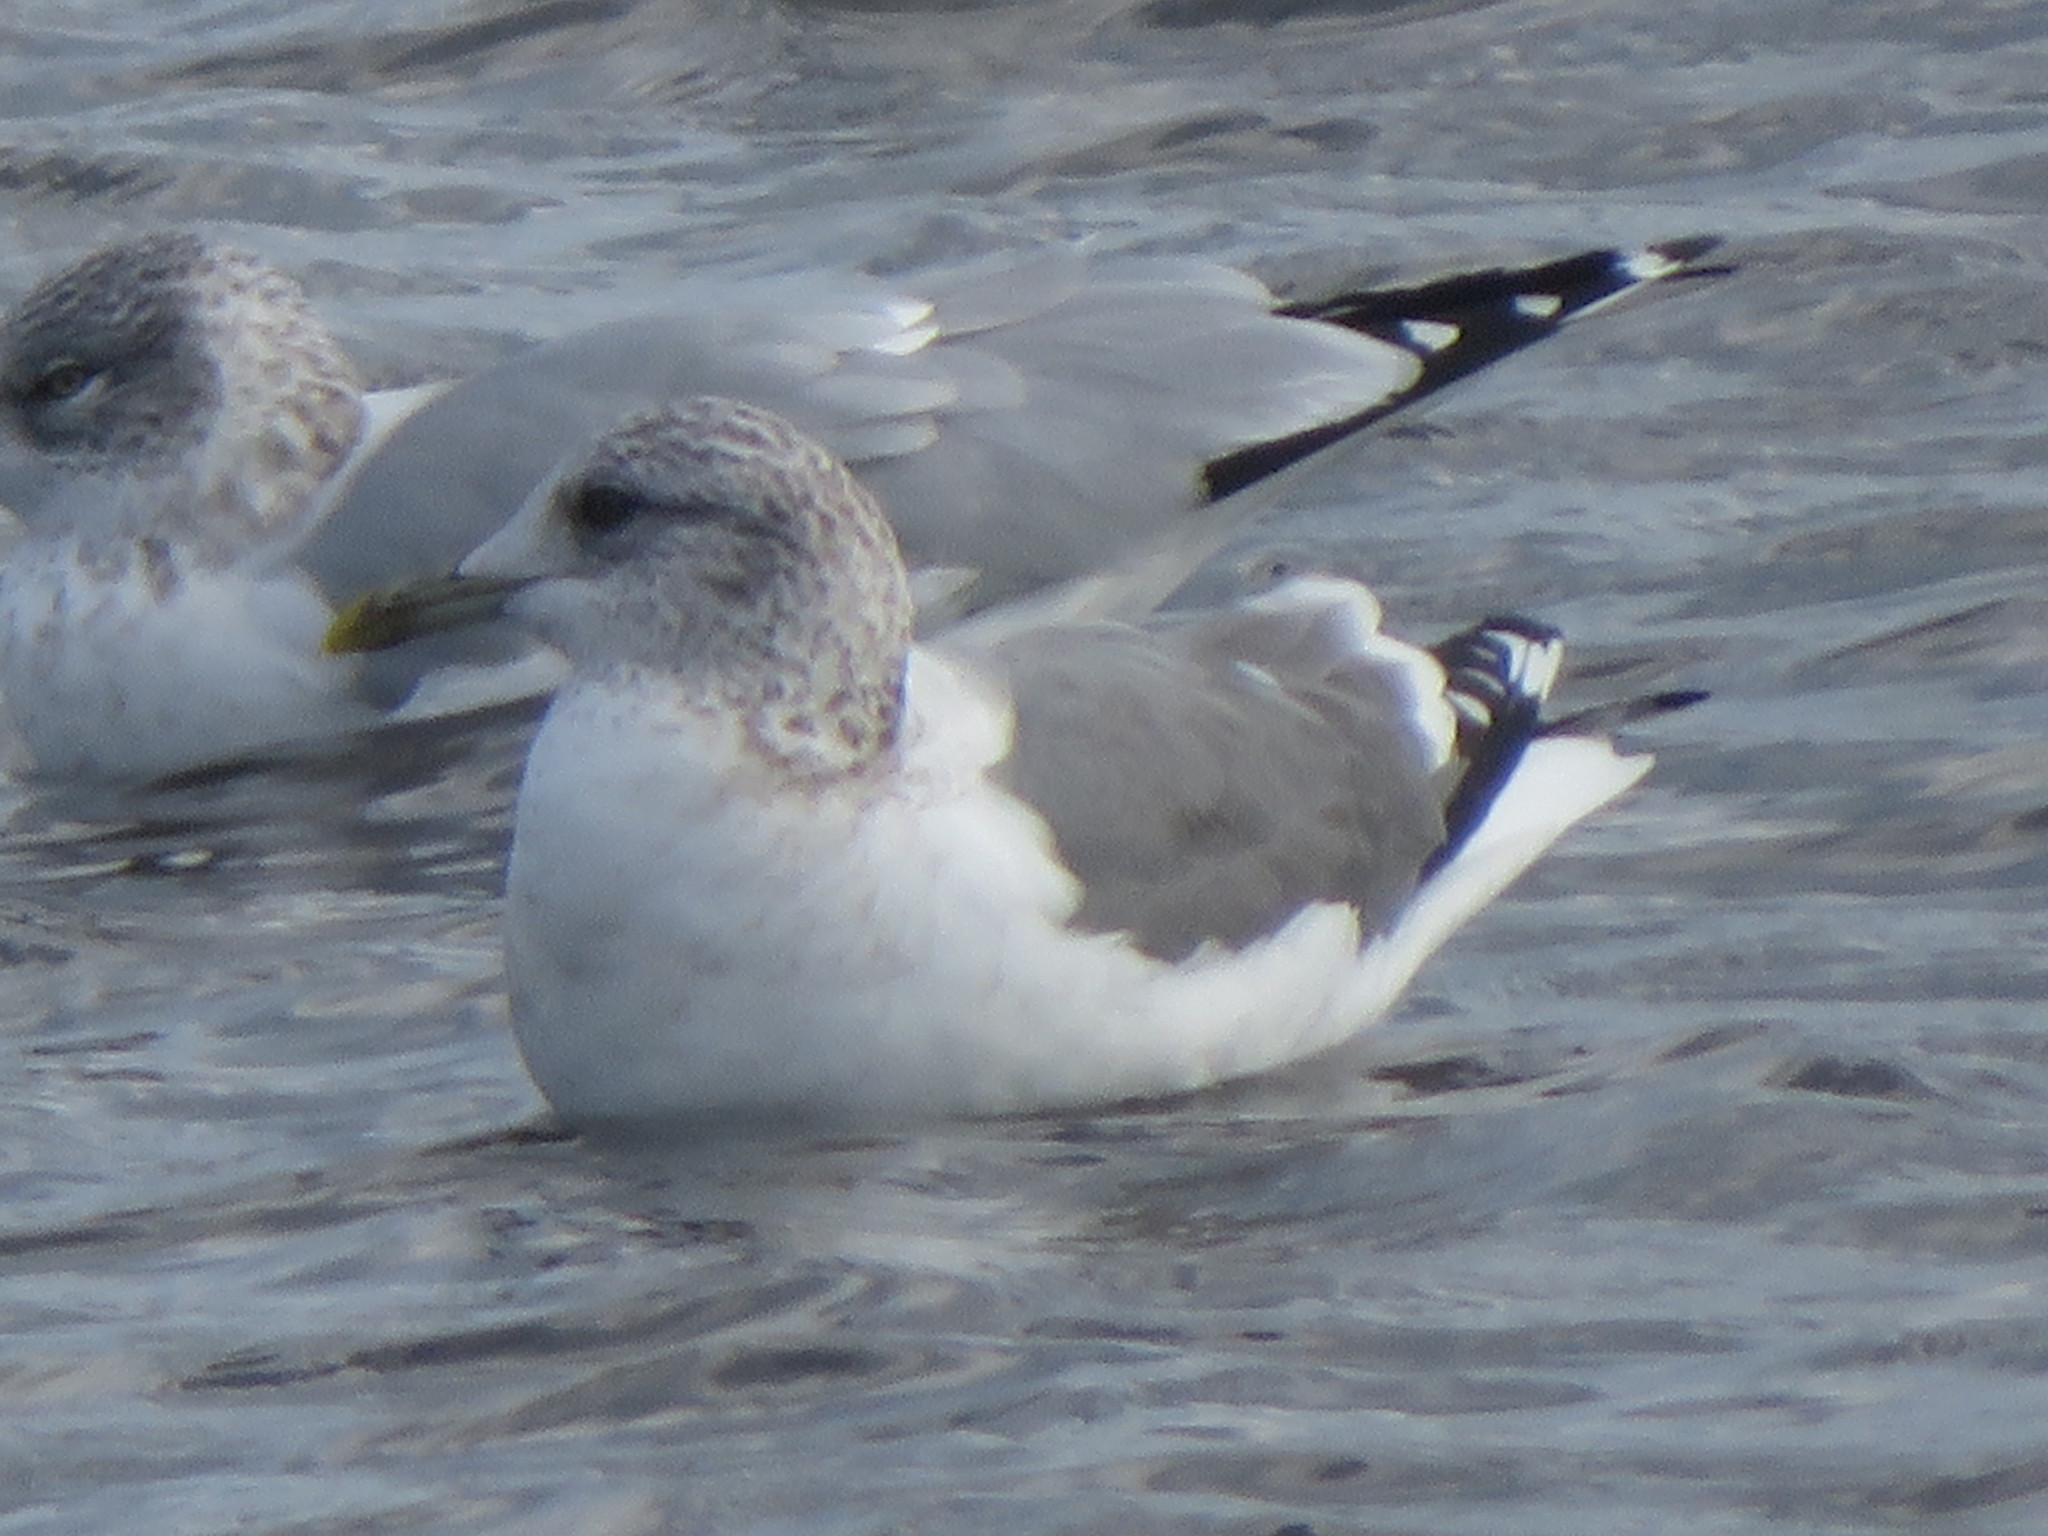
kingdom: Animalia
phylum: Chordata
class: Aves
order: Charadriiformes
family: Laridae
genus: Larus
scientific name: Larus canus
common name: Mew gull
